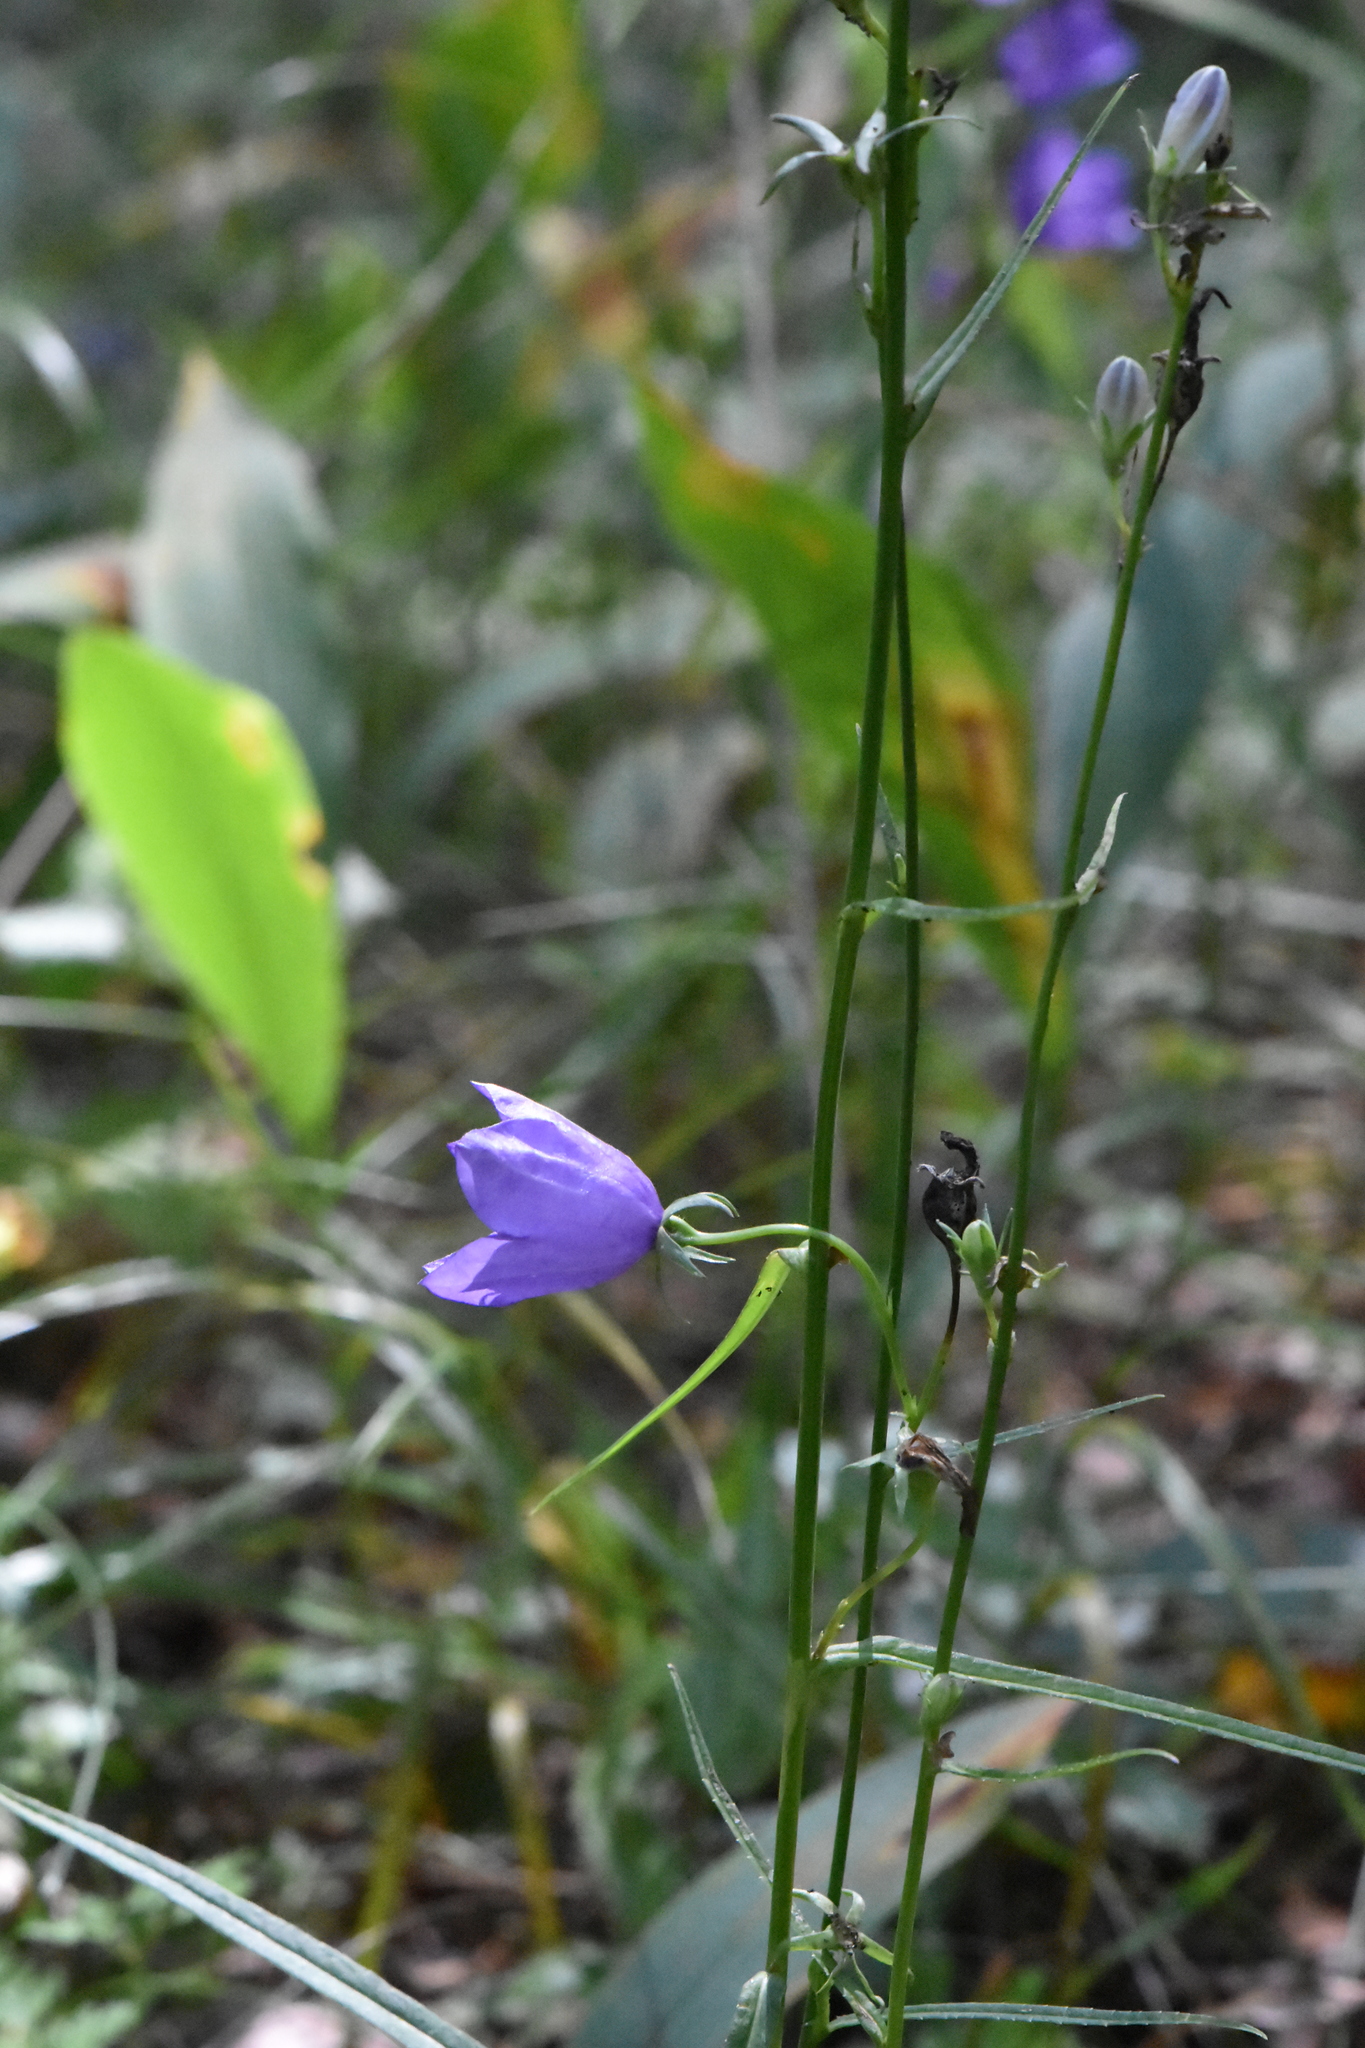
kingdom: Plantae
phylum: Tracheophyta
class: Magnoliopsida
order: Asterales
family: Campanulaceae
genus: Campanula
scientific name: Campanula persicifolia
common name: Peach-leaved bellflower
